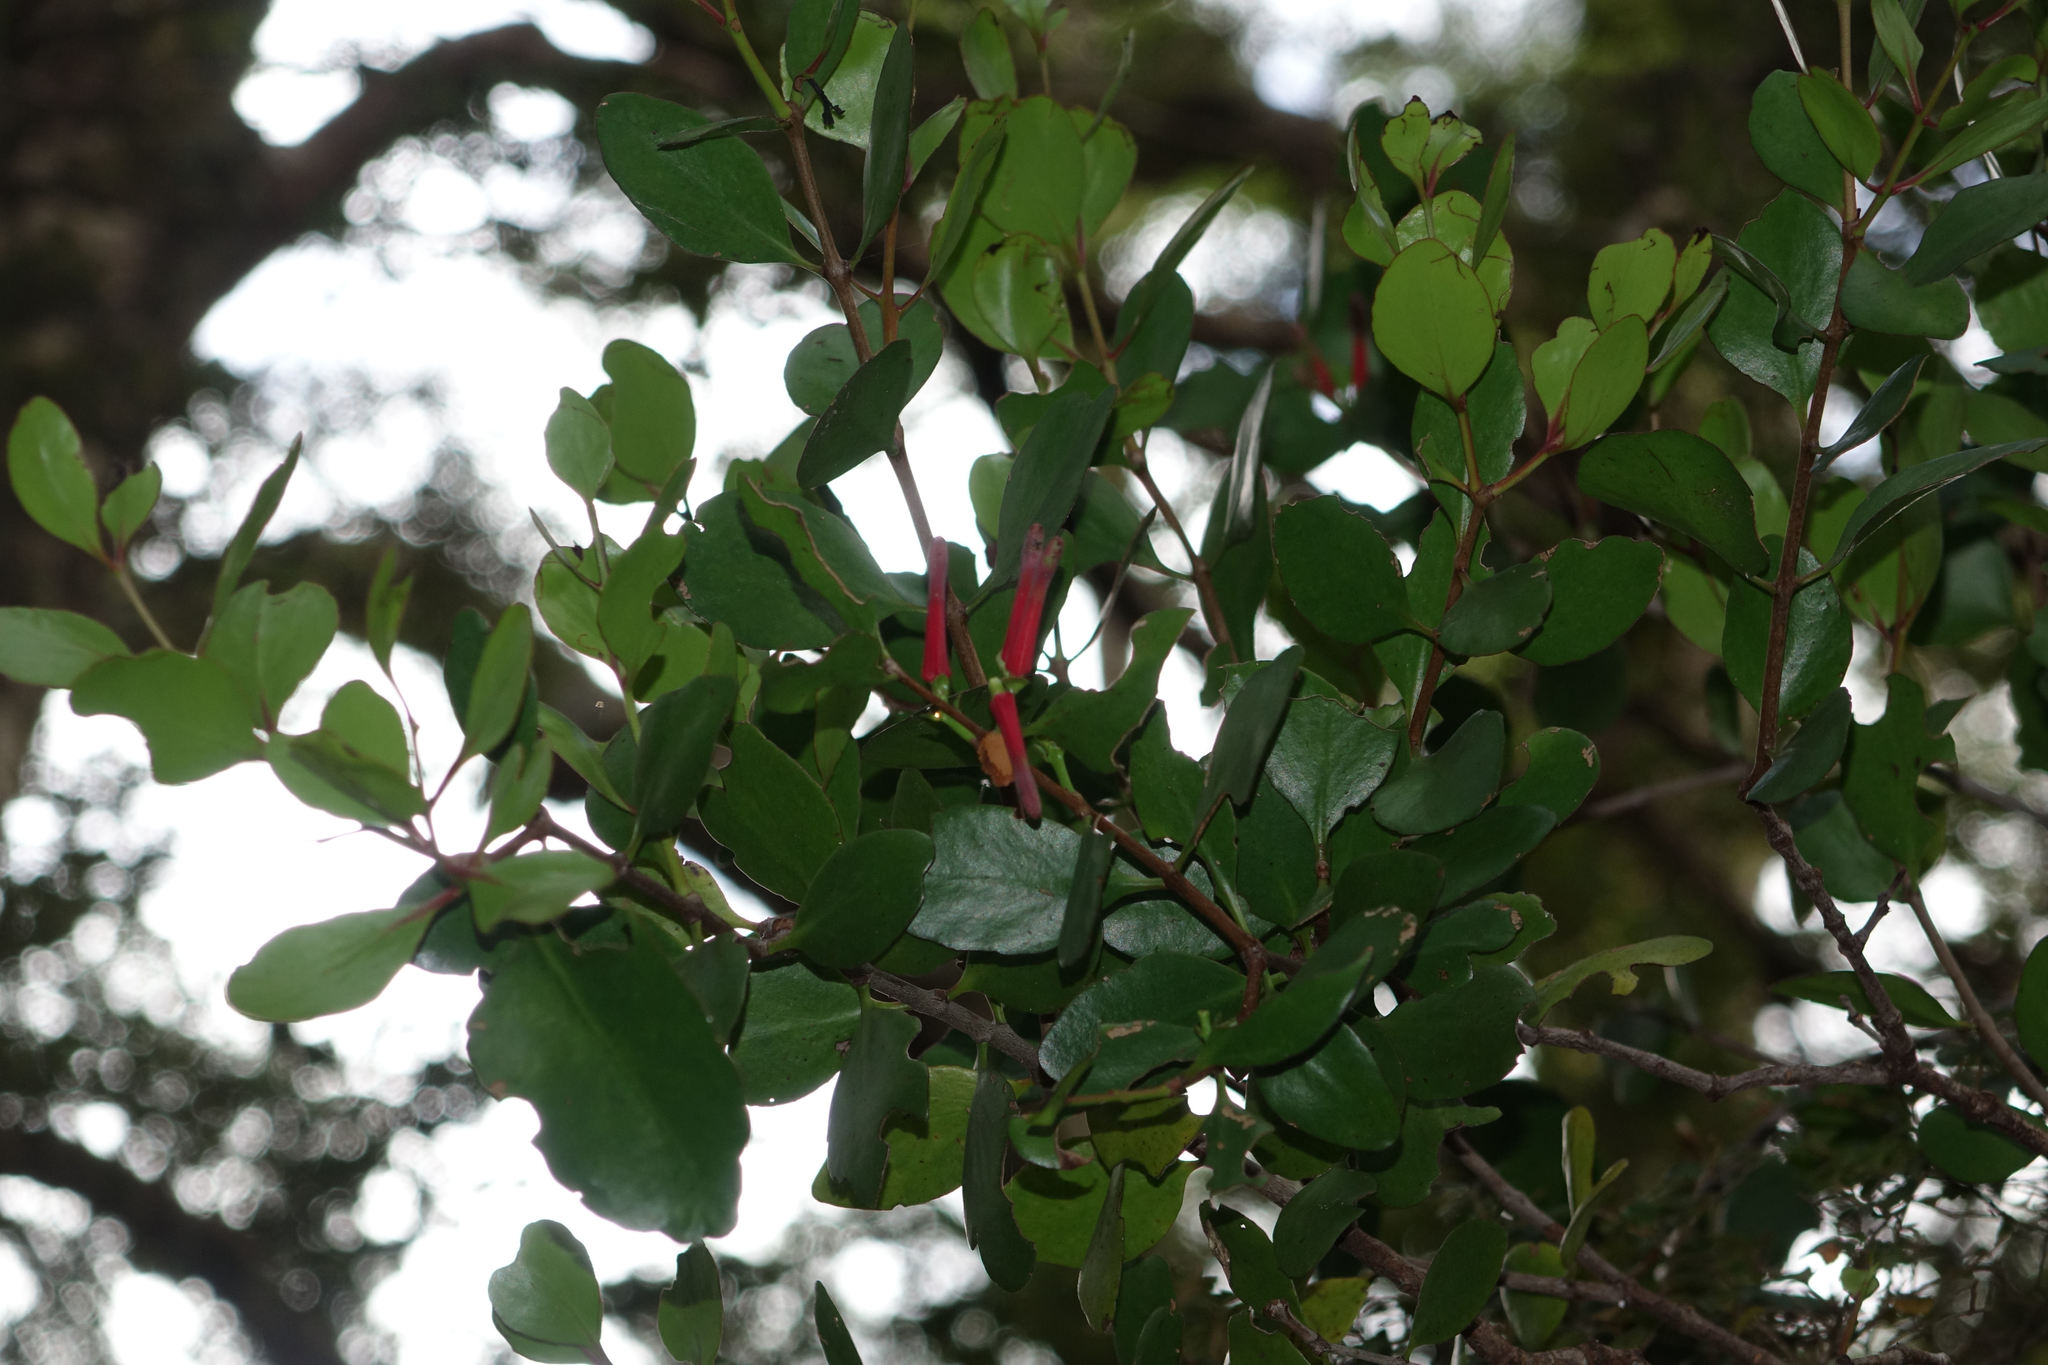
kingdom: Plantae
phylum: Tracheophyta
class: Magnoliopsida
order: Santalales
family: Loranthaceae
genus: Peraxilla
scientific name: Peraxilla colensoi
